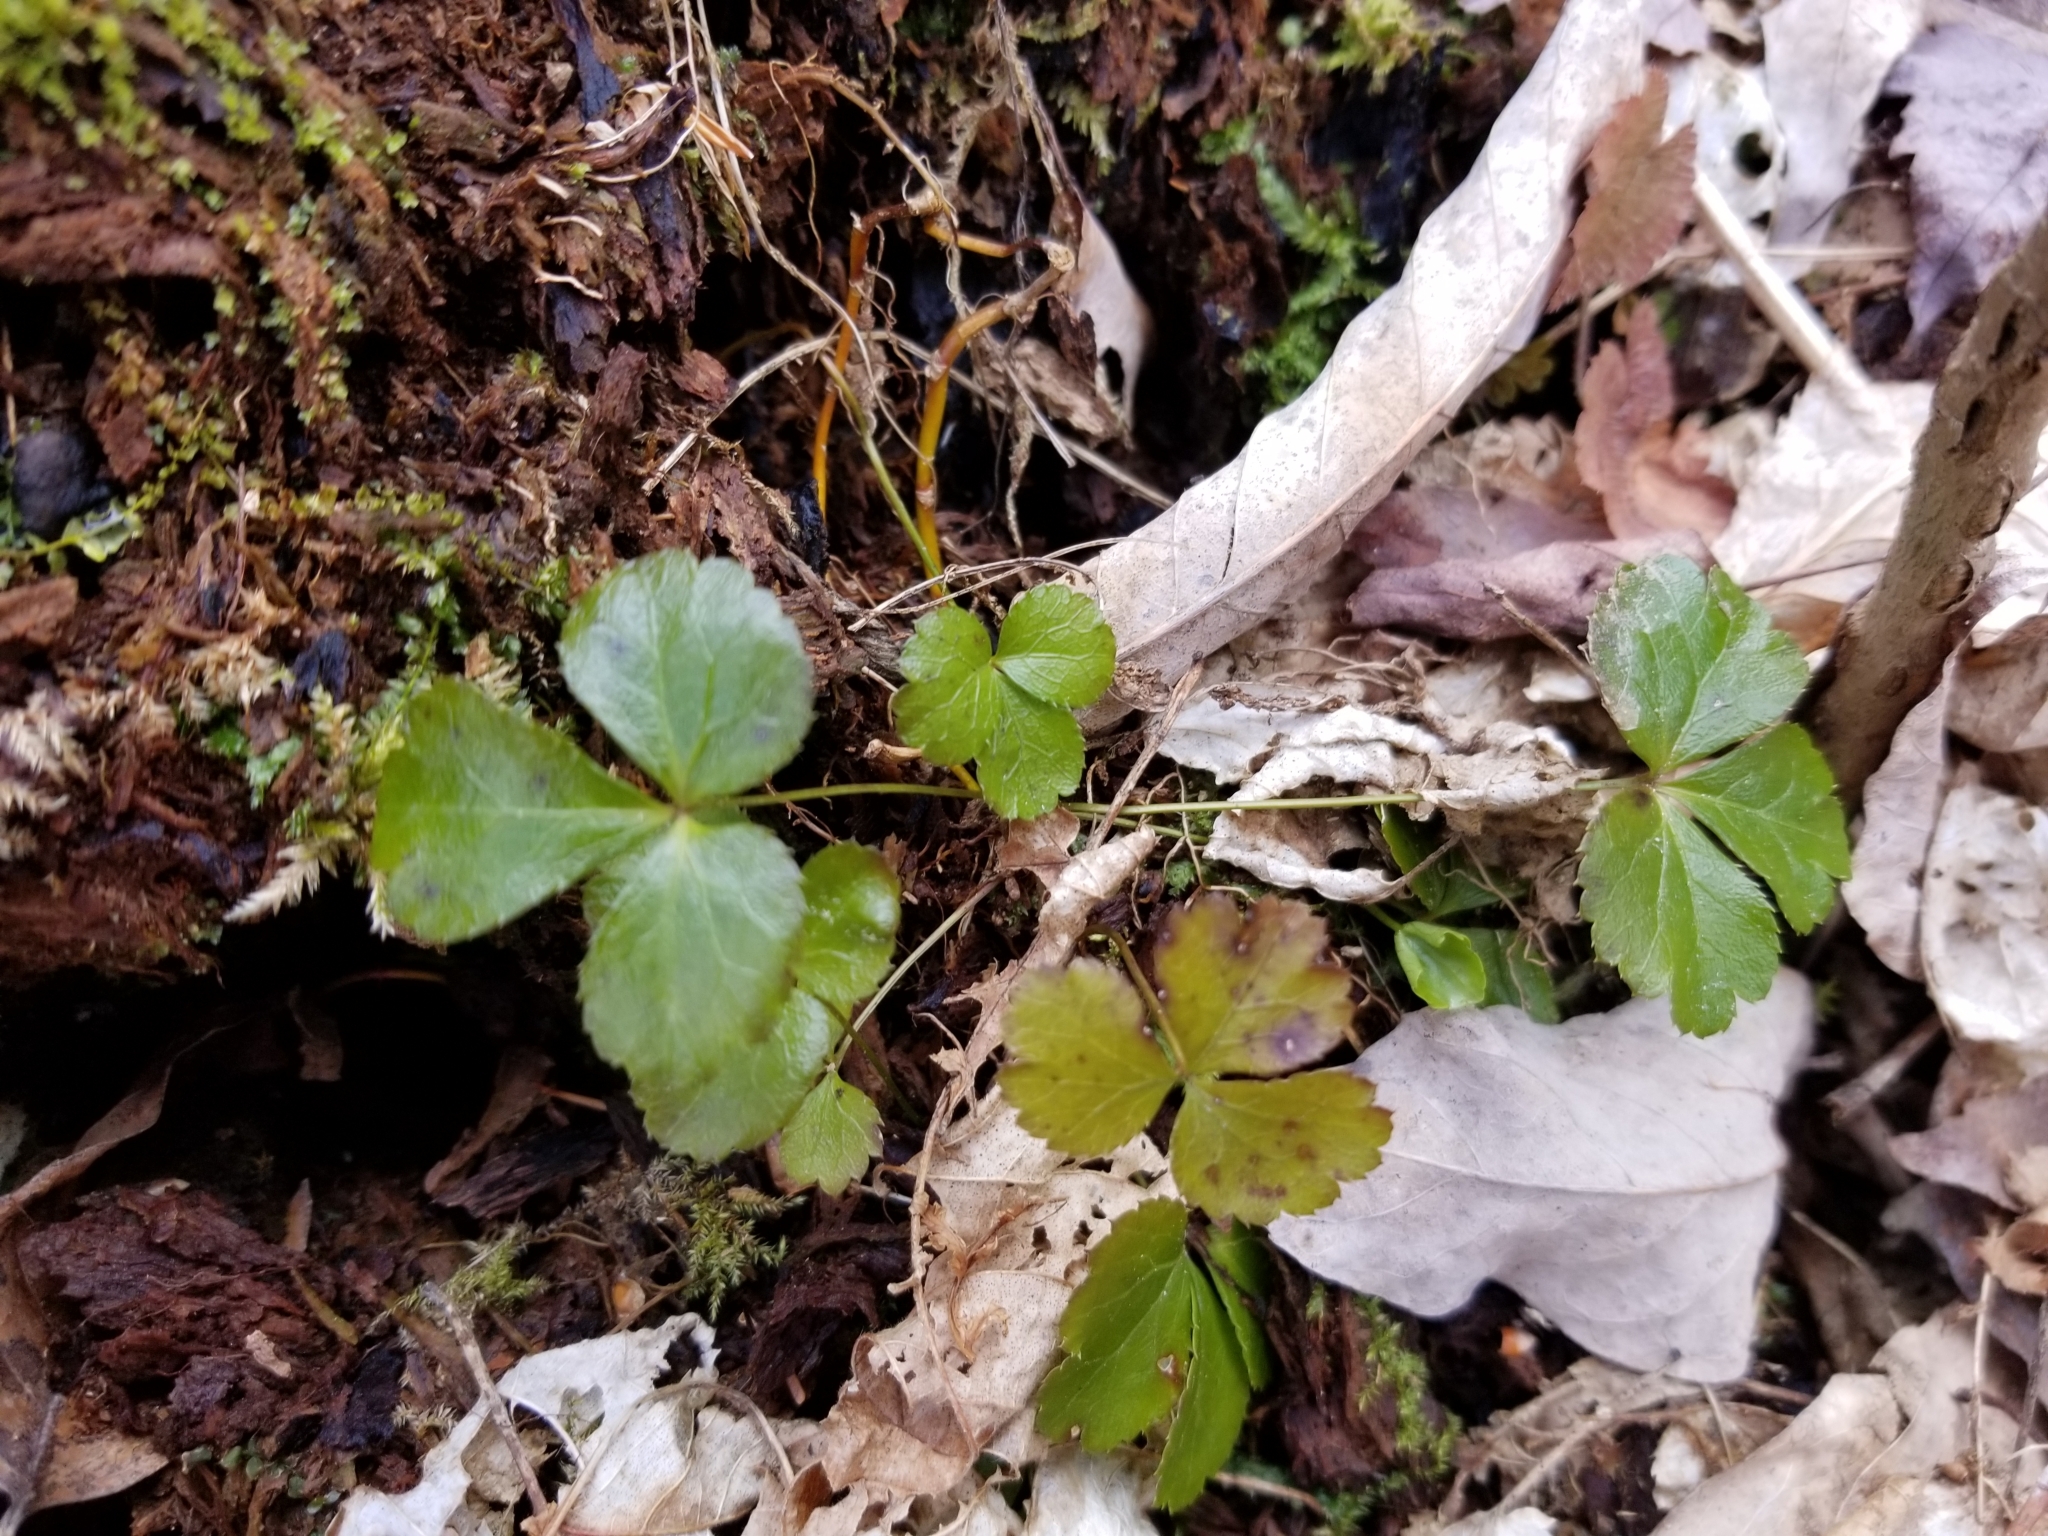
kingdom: Plantae
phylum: Tracheophyta
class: Magnoliopsida
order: Ranunculales
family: Ranunculaceae
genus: Coptis
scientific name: Coptis trifolia
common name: Canker-root
